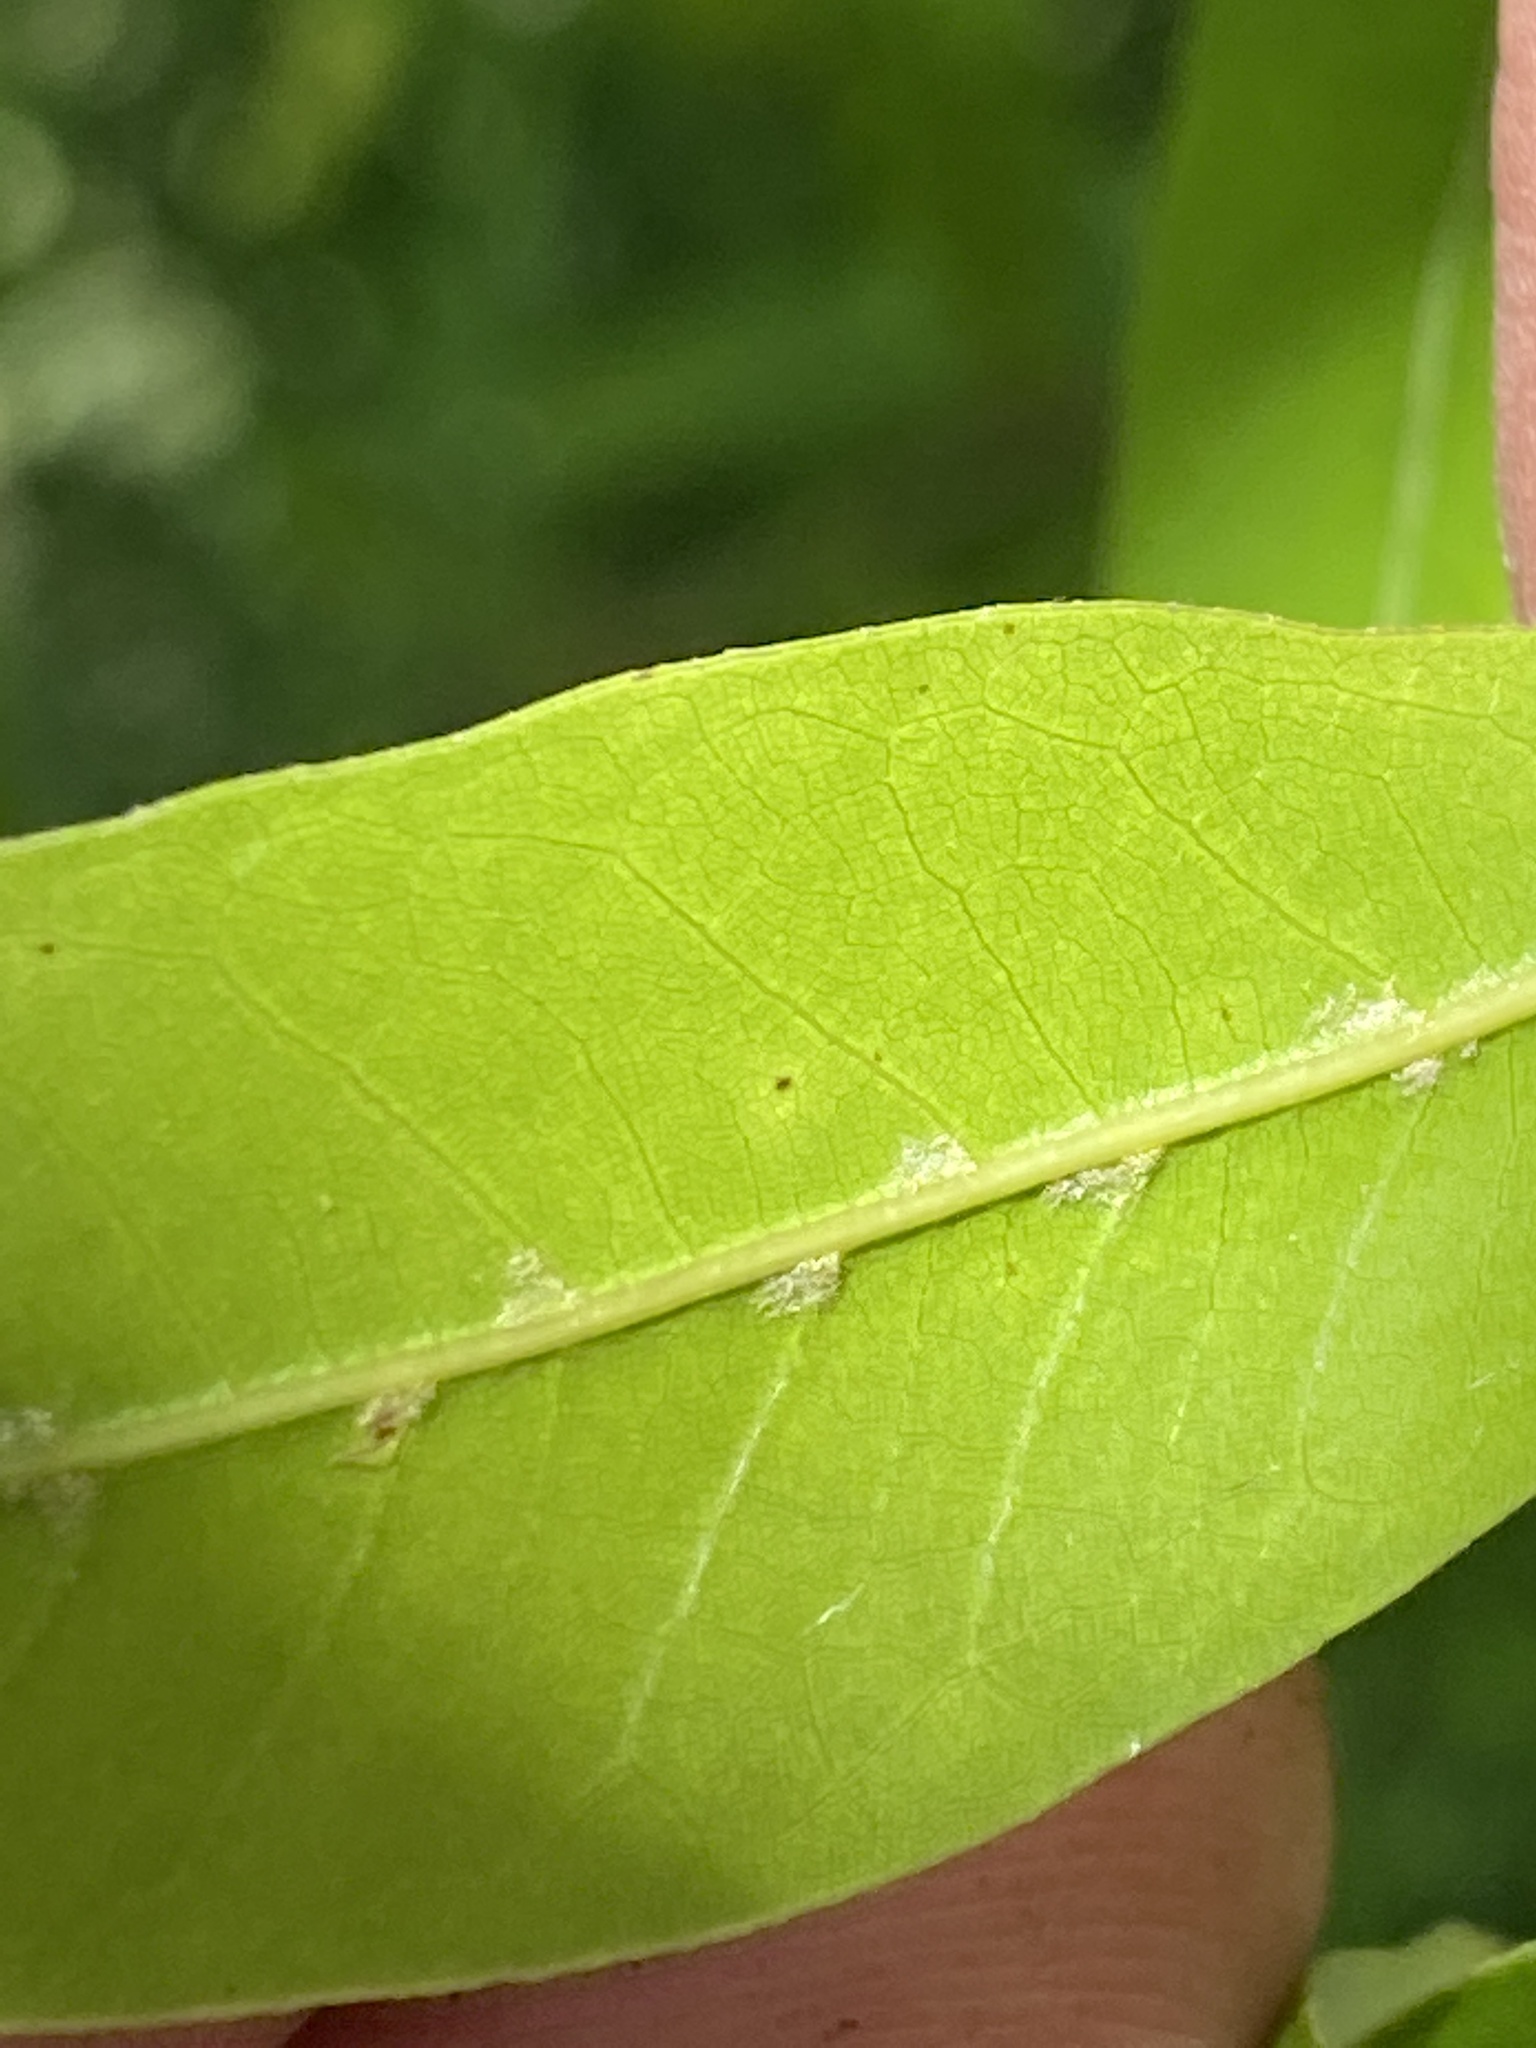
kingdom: Plantae
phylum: Tracheophyta
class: Magnoliopsida
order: Fagales
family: Fagaceae
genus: Quercus
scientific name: Quercus laurifolia
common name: Swamp laurel oak
